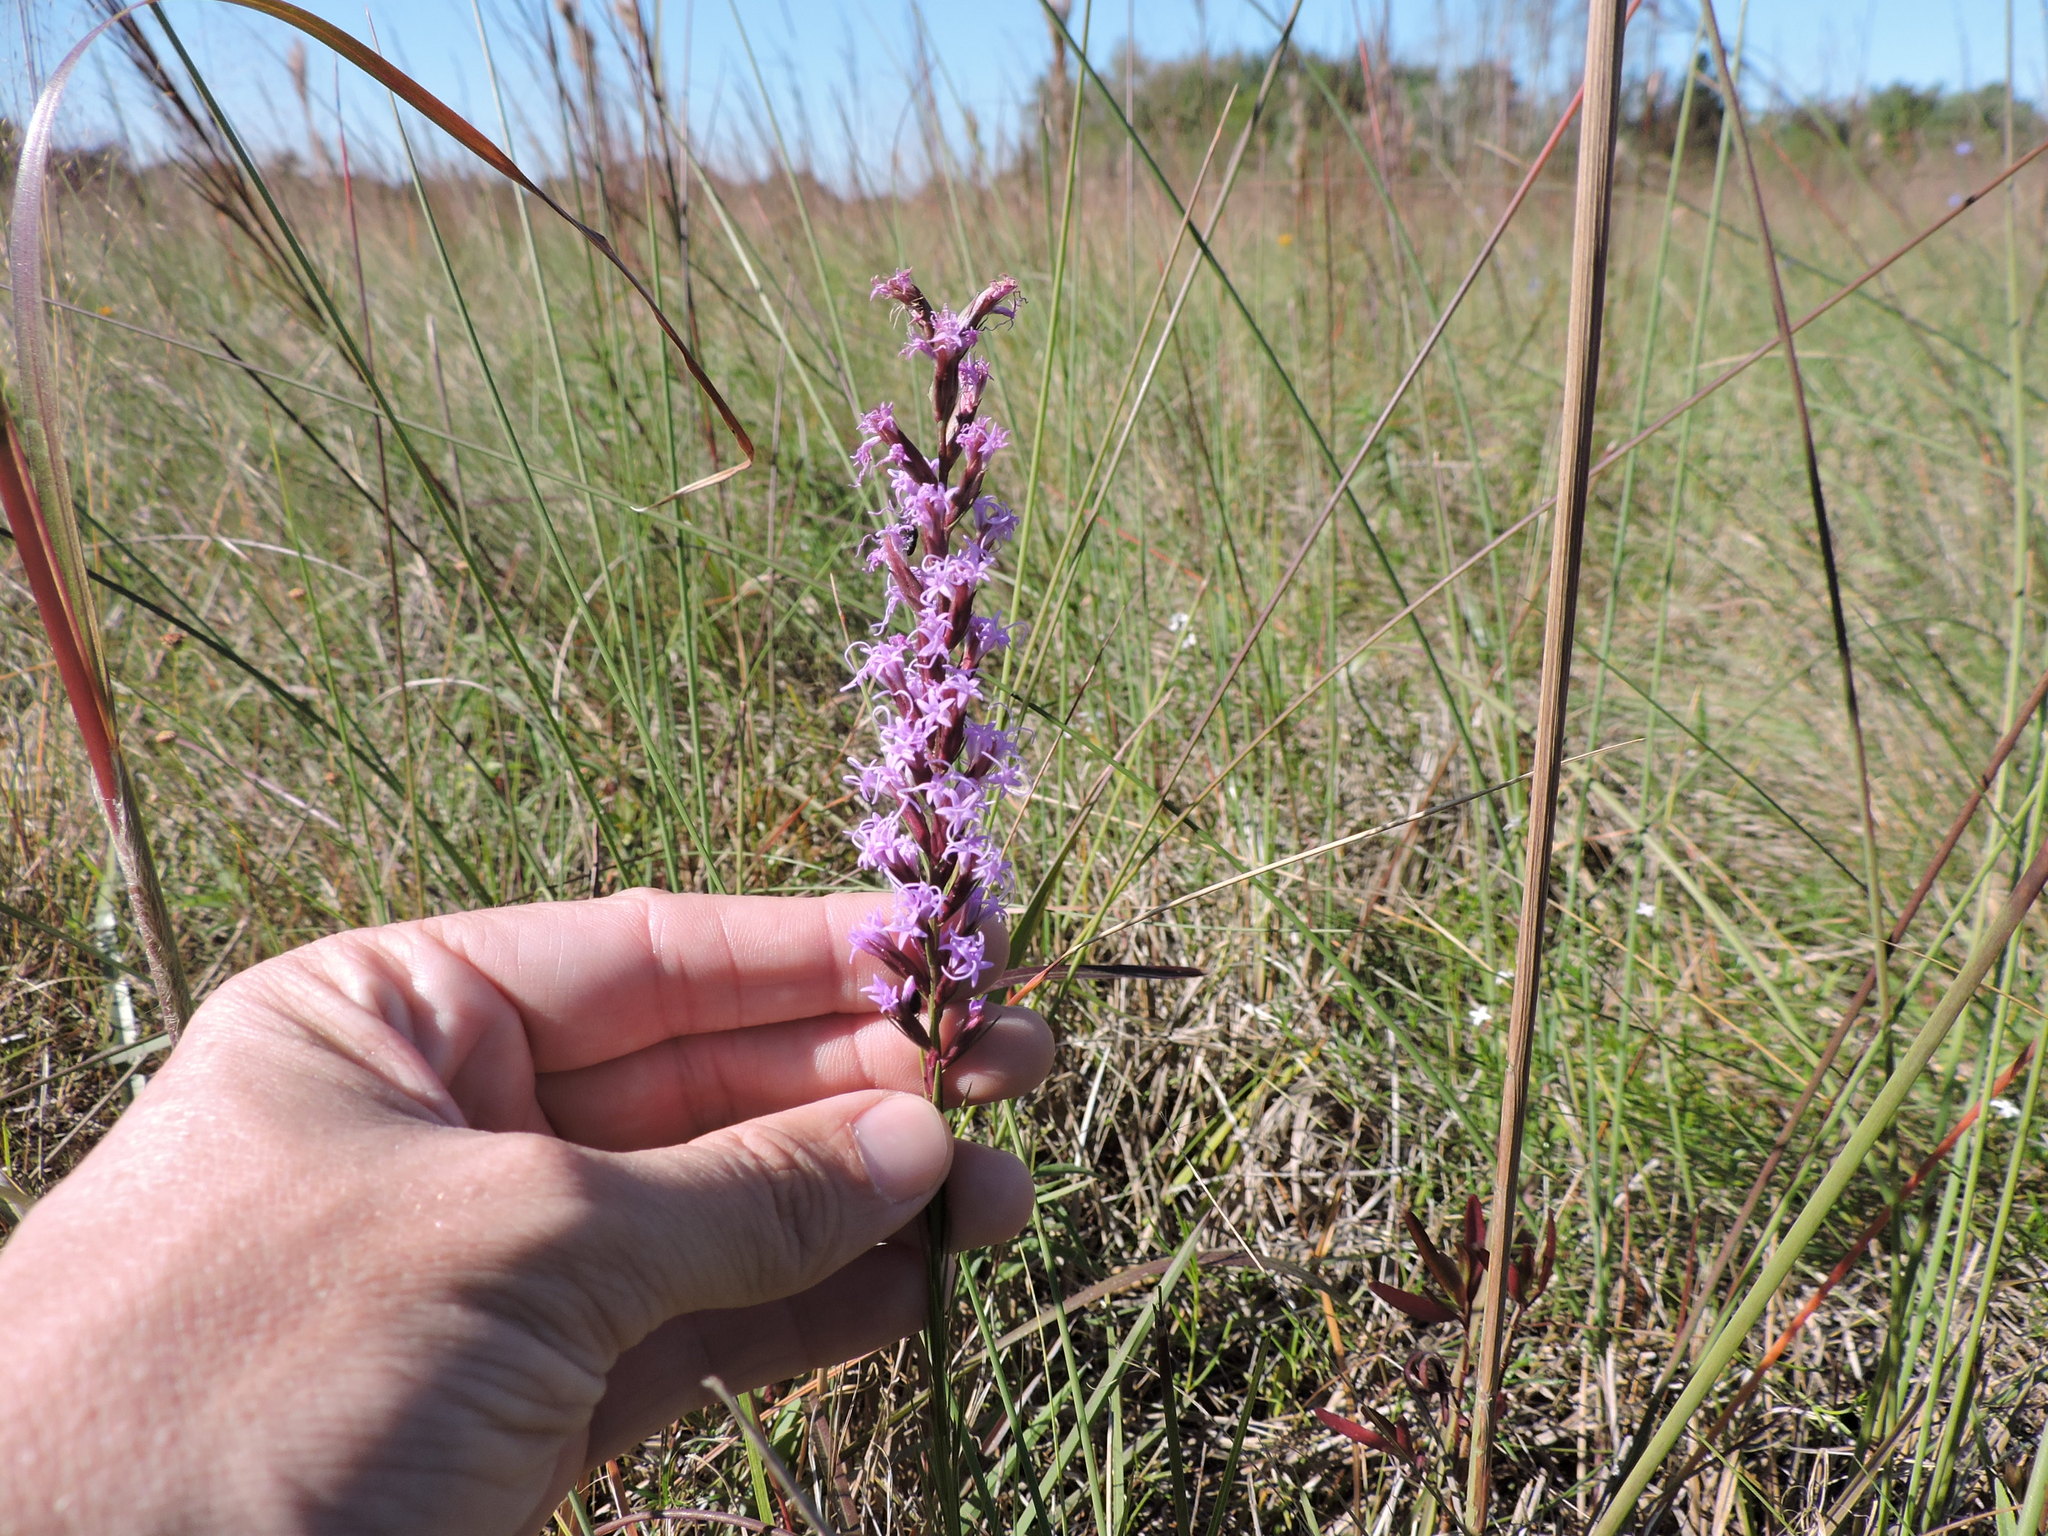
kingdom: Plantae
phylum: Tracheophyta
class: Magnoliopsida
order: Asterales
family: Asteraceae
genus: Liatris
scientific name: Liatris acidota
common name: Gulf coast gayfeather
